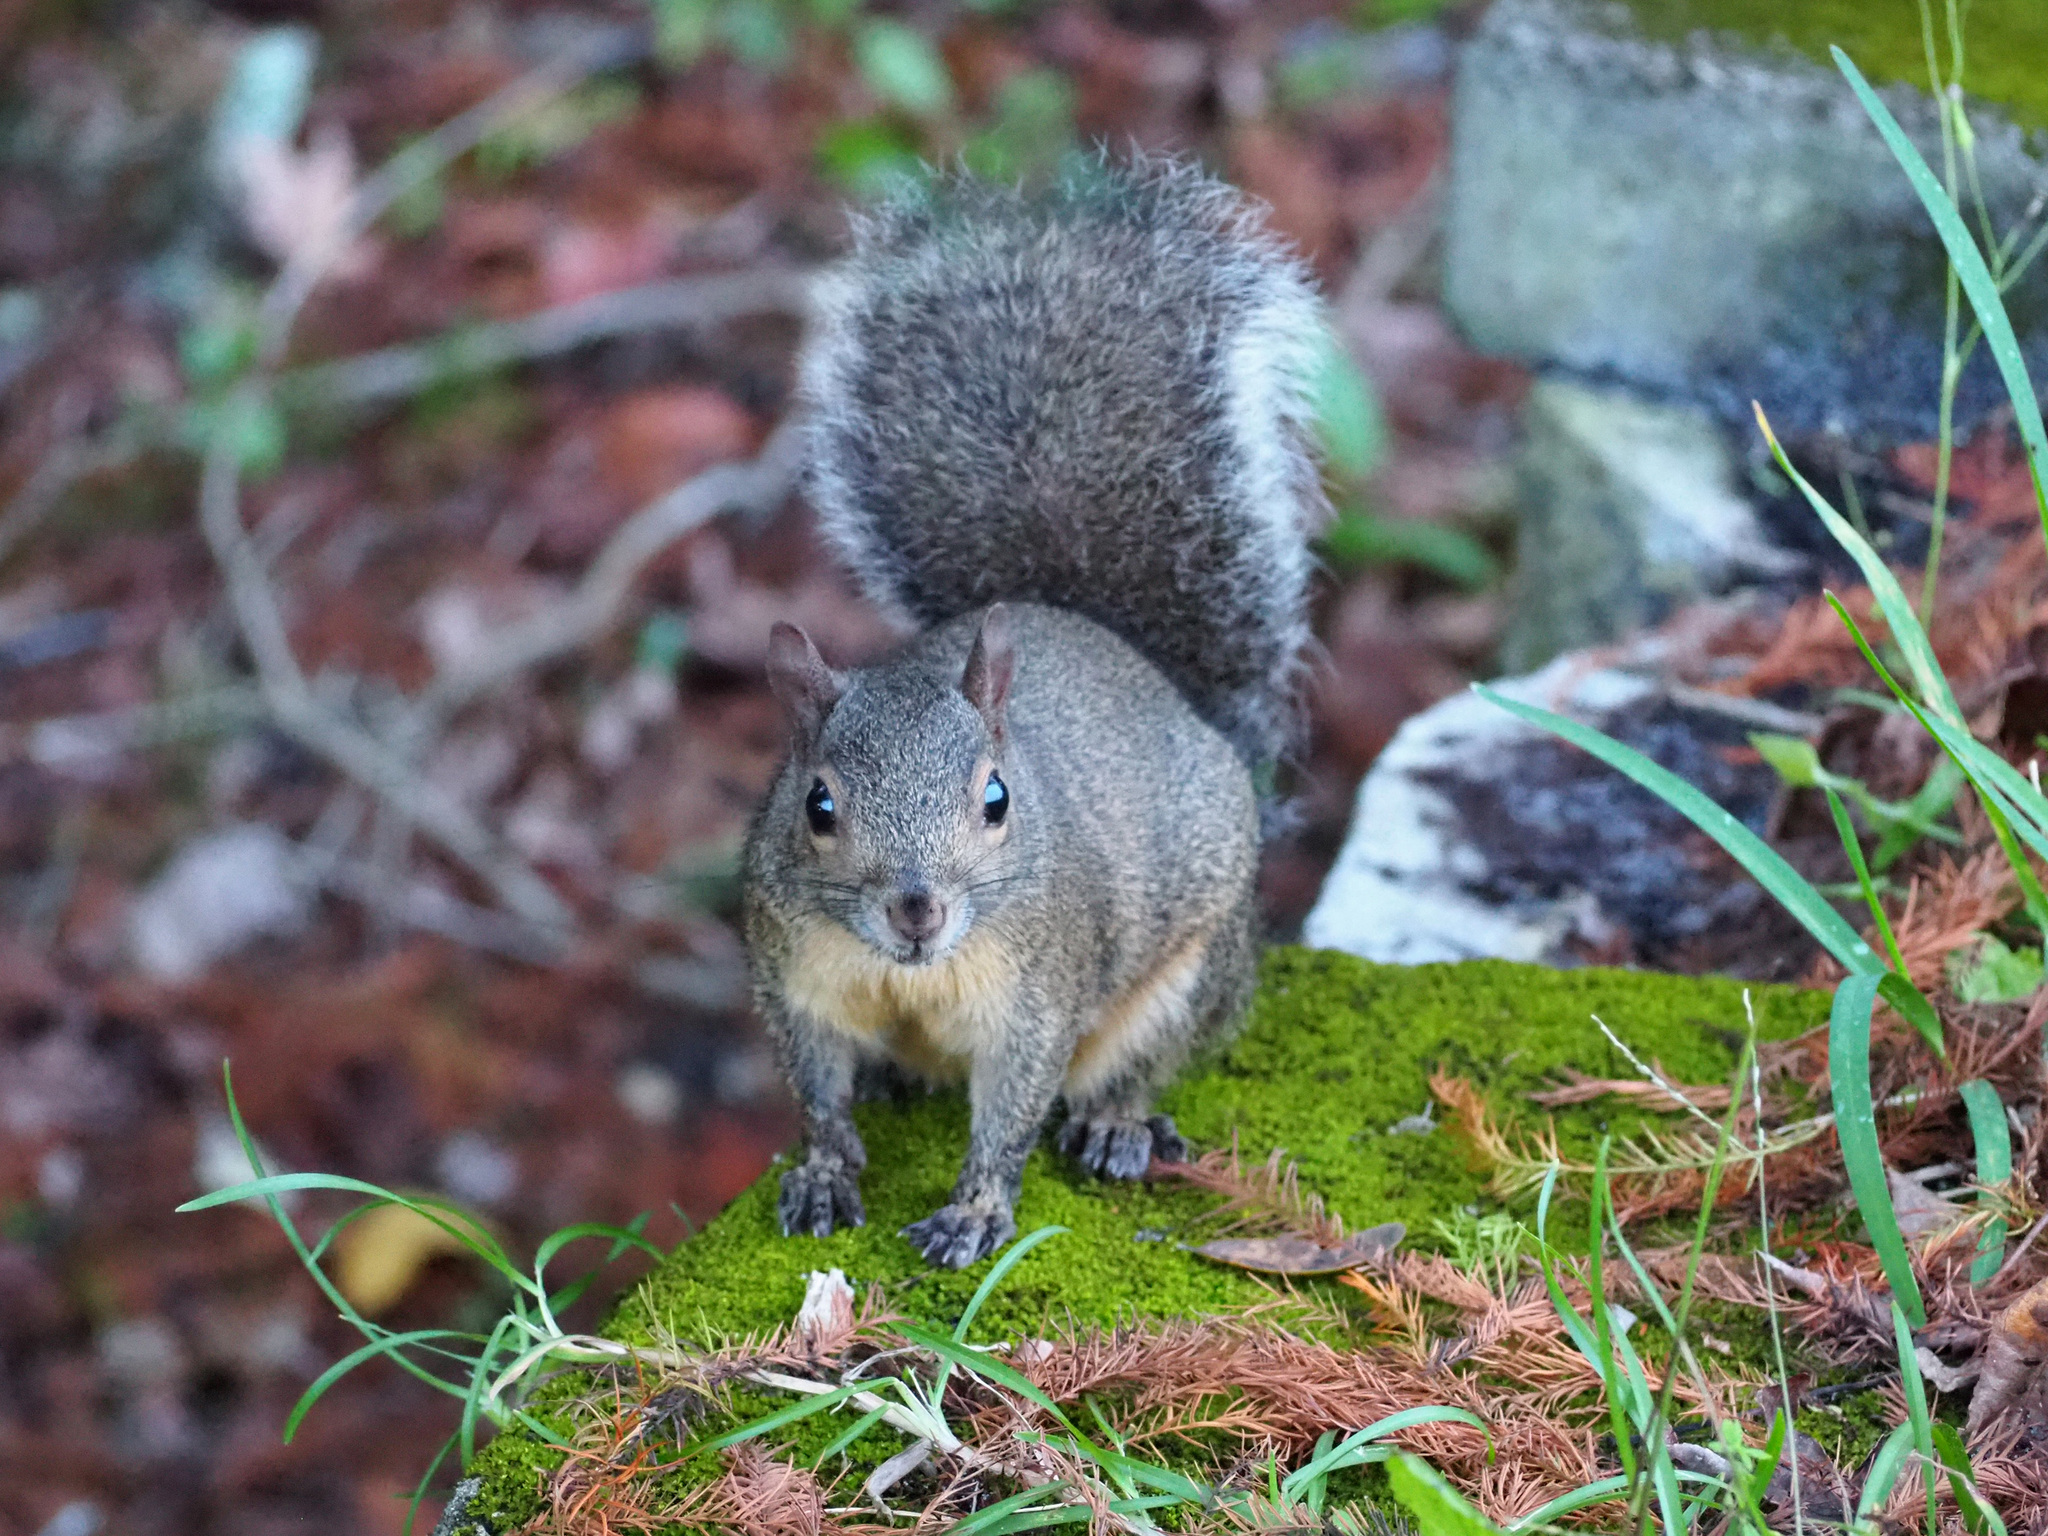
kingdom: Animalia
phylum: Chordata
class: Mammalia
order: Rodentia
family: Sciuridae
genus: Sciurus
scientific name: Sciurus carolinensis
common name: Eastern gray squirrel
